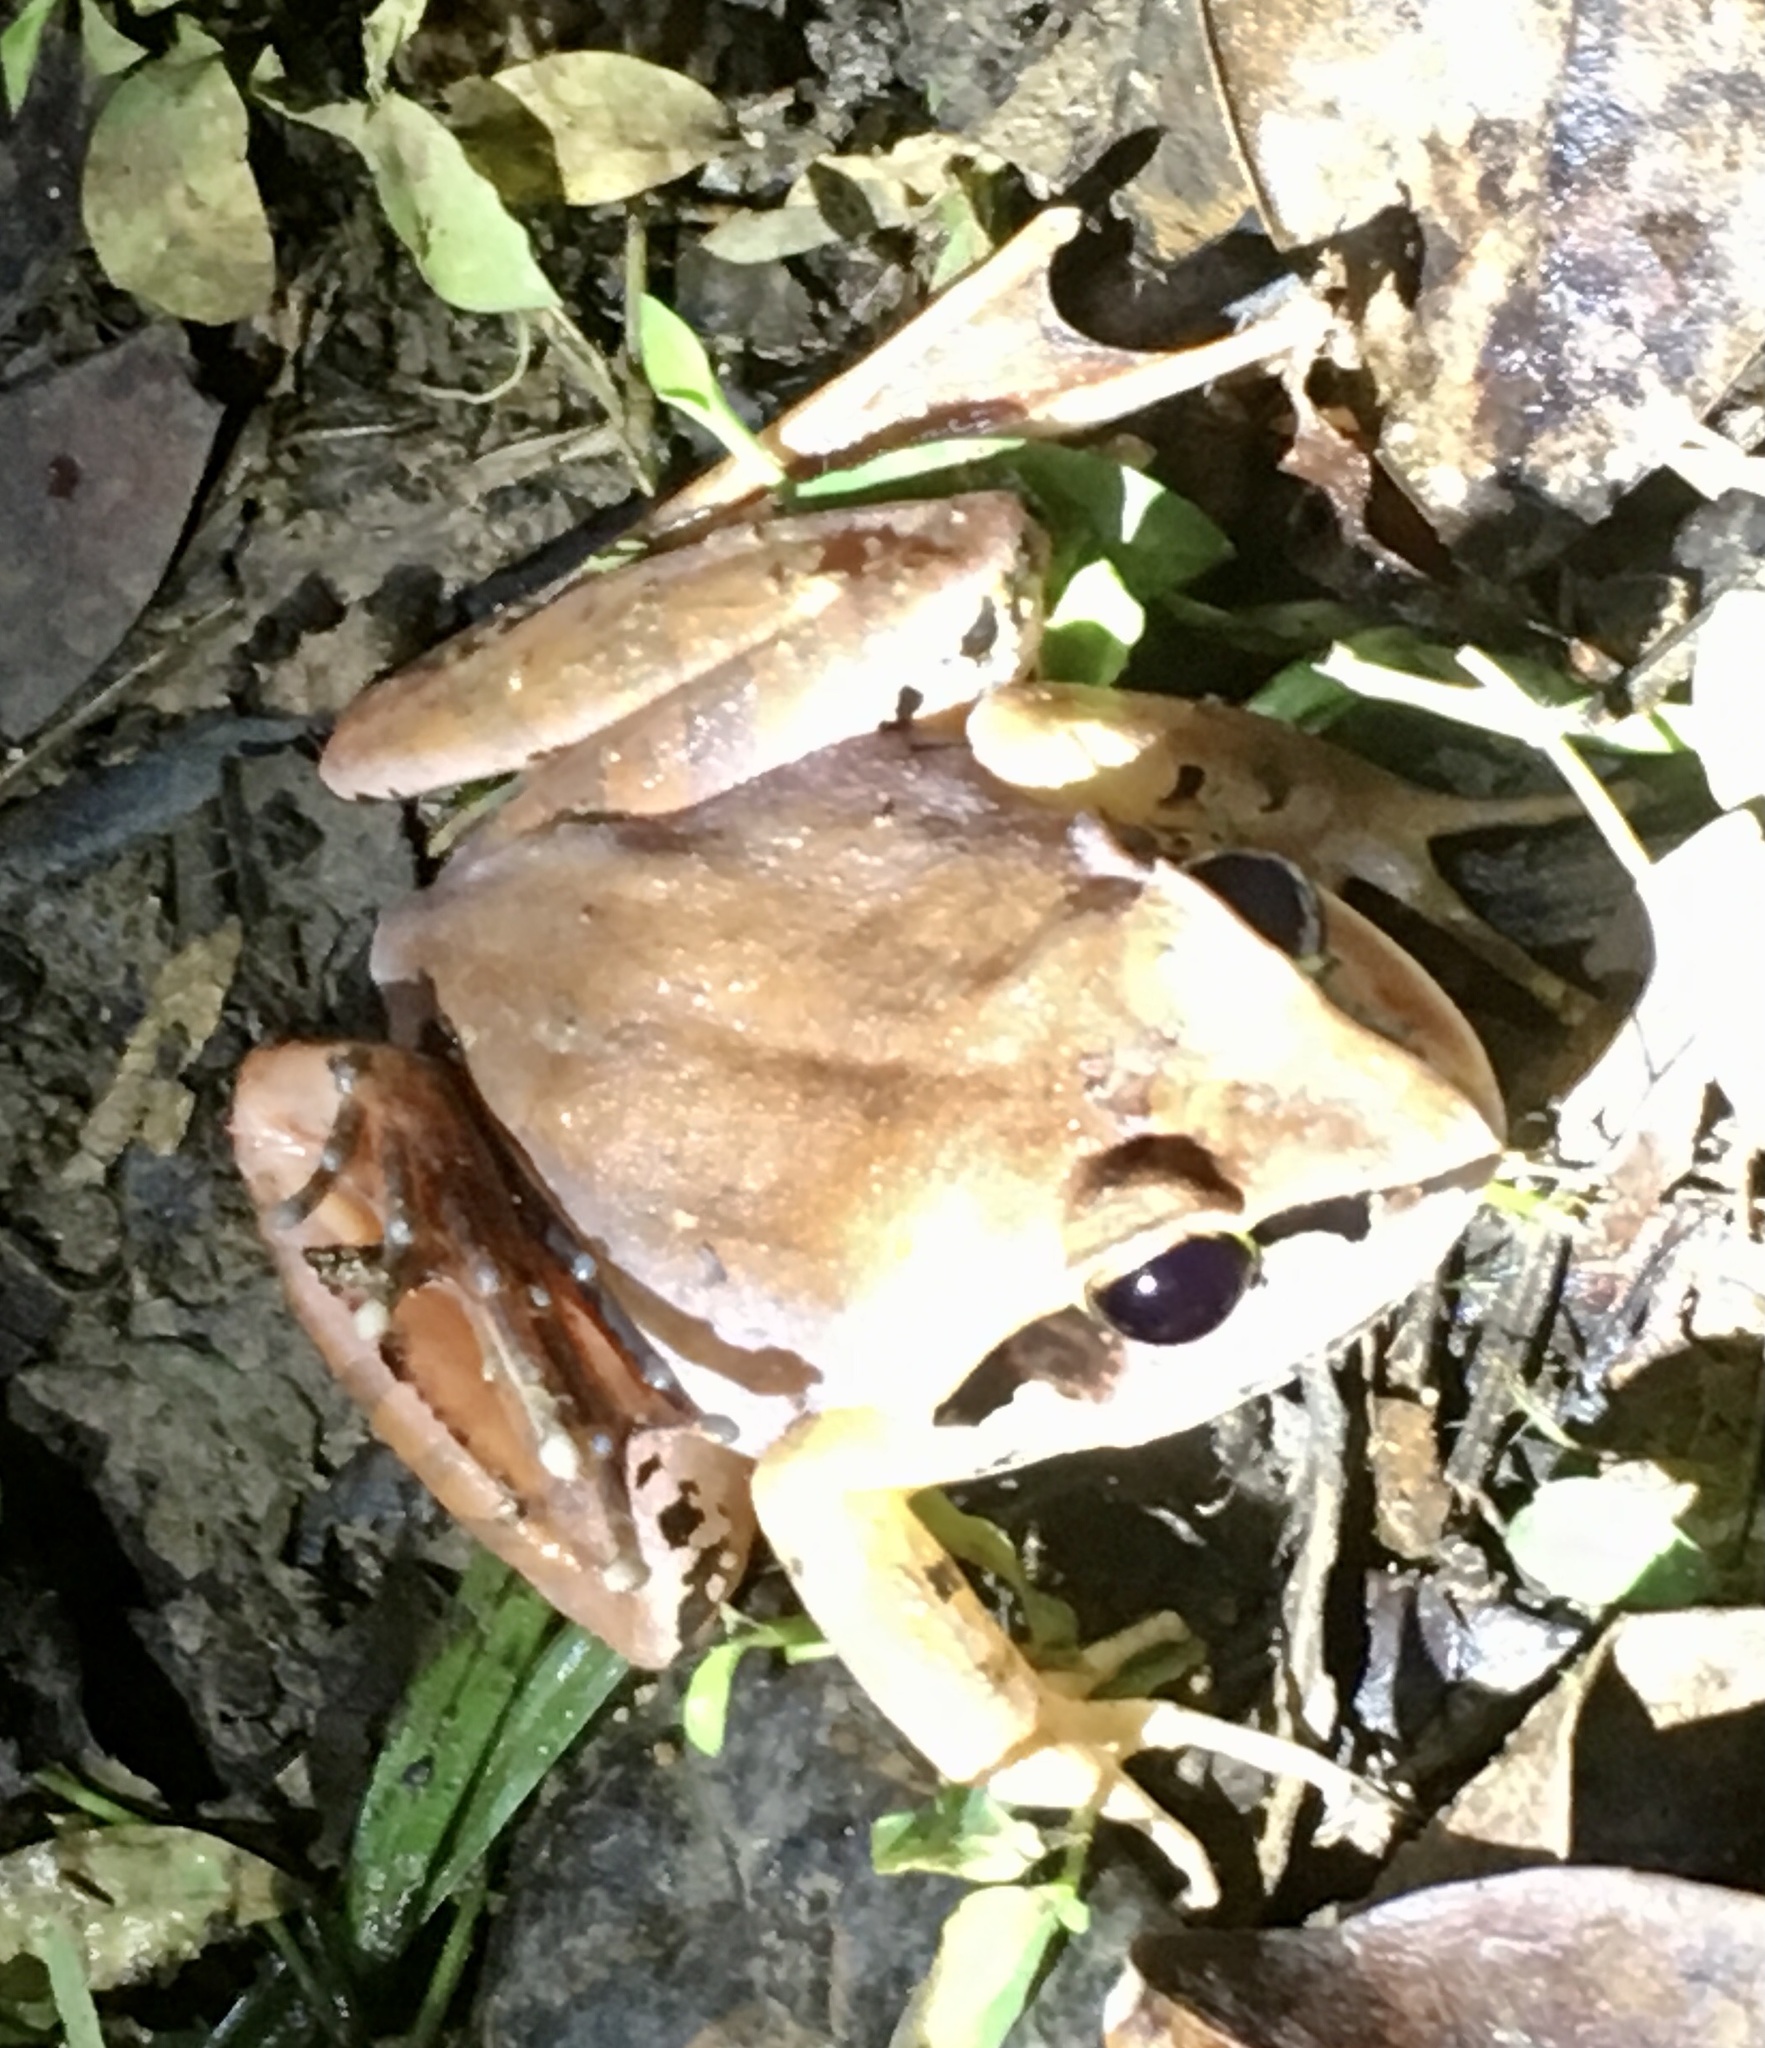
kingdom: Animalia
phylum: Chordata
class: Amphibia
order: Anura
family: Mantellidae
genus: Aglyptodactylus
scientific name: Aglyptodactylus madagascariensis
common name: Madagascar jumping frog
